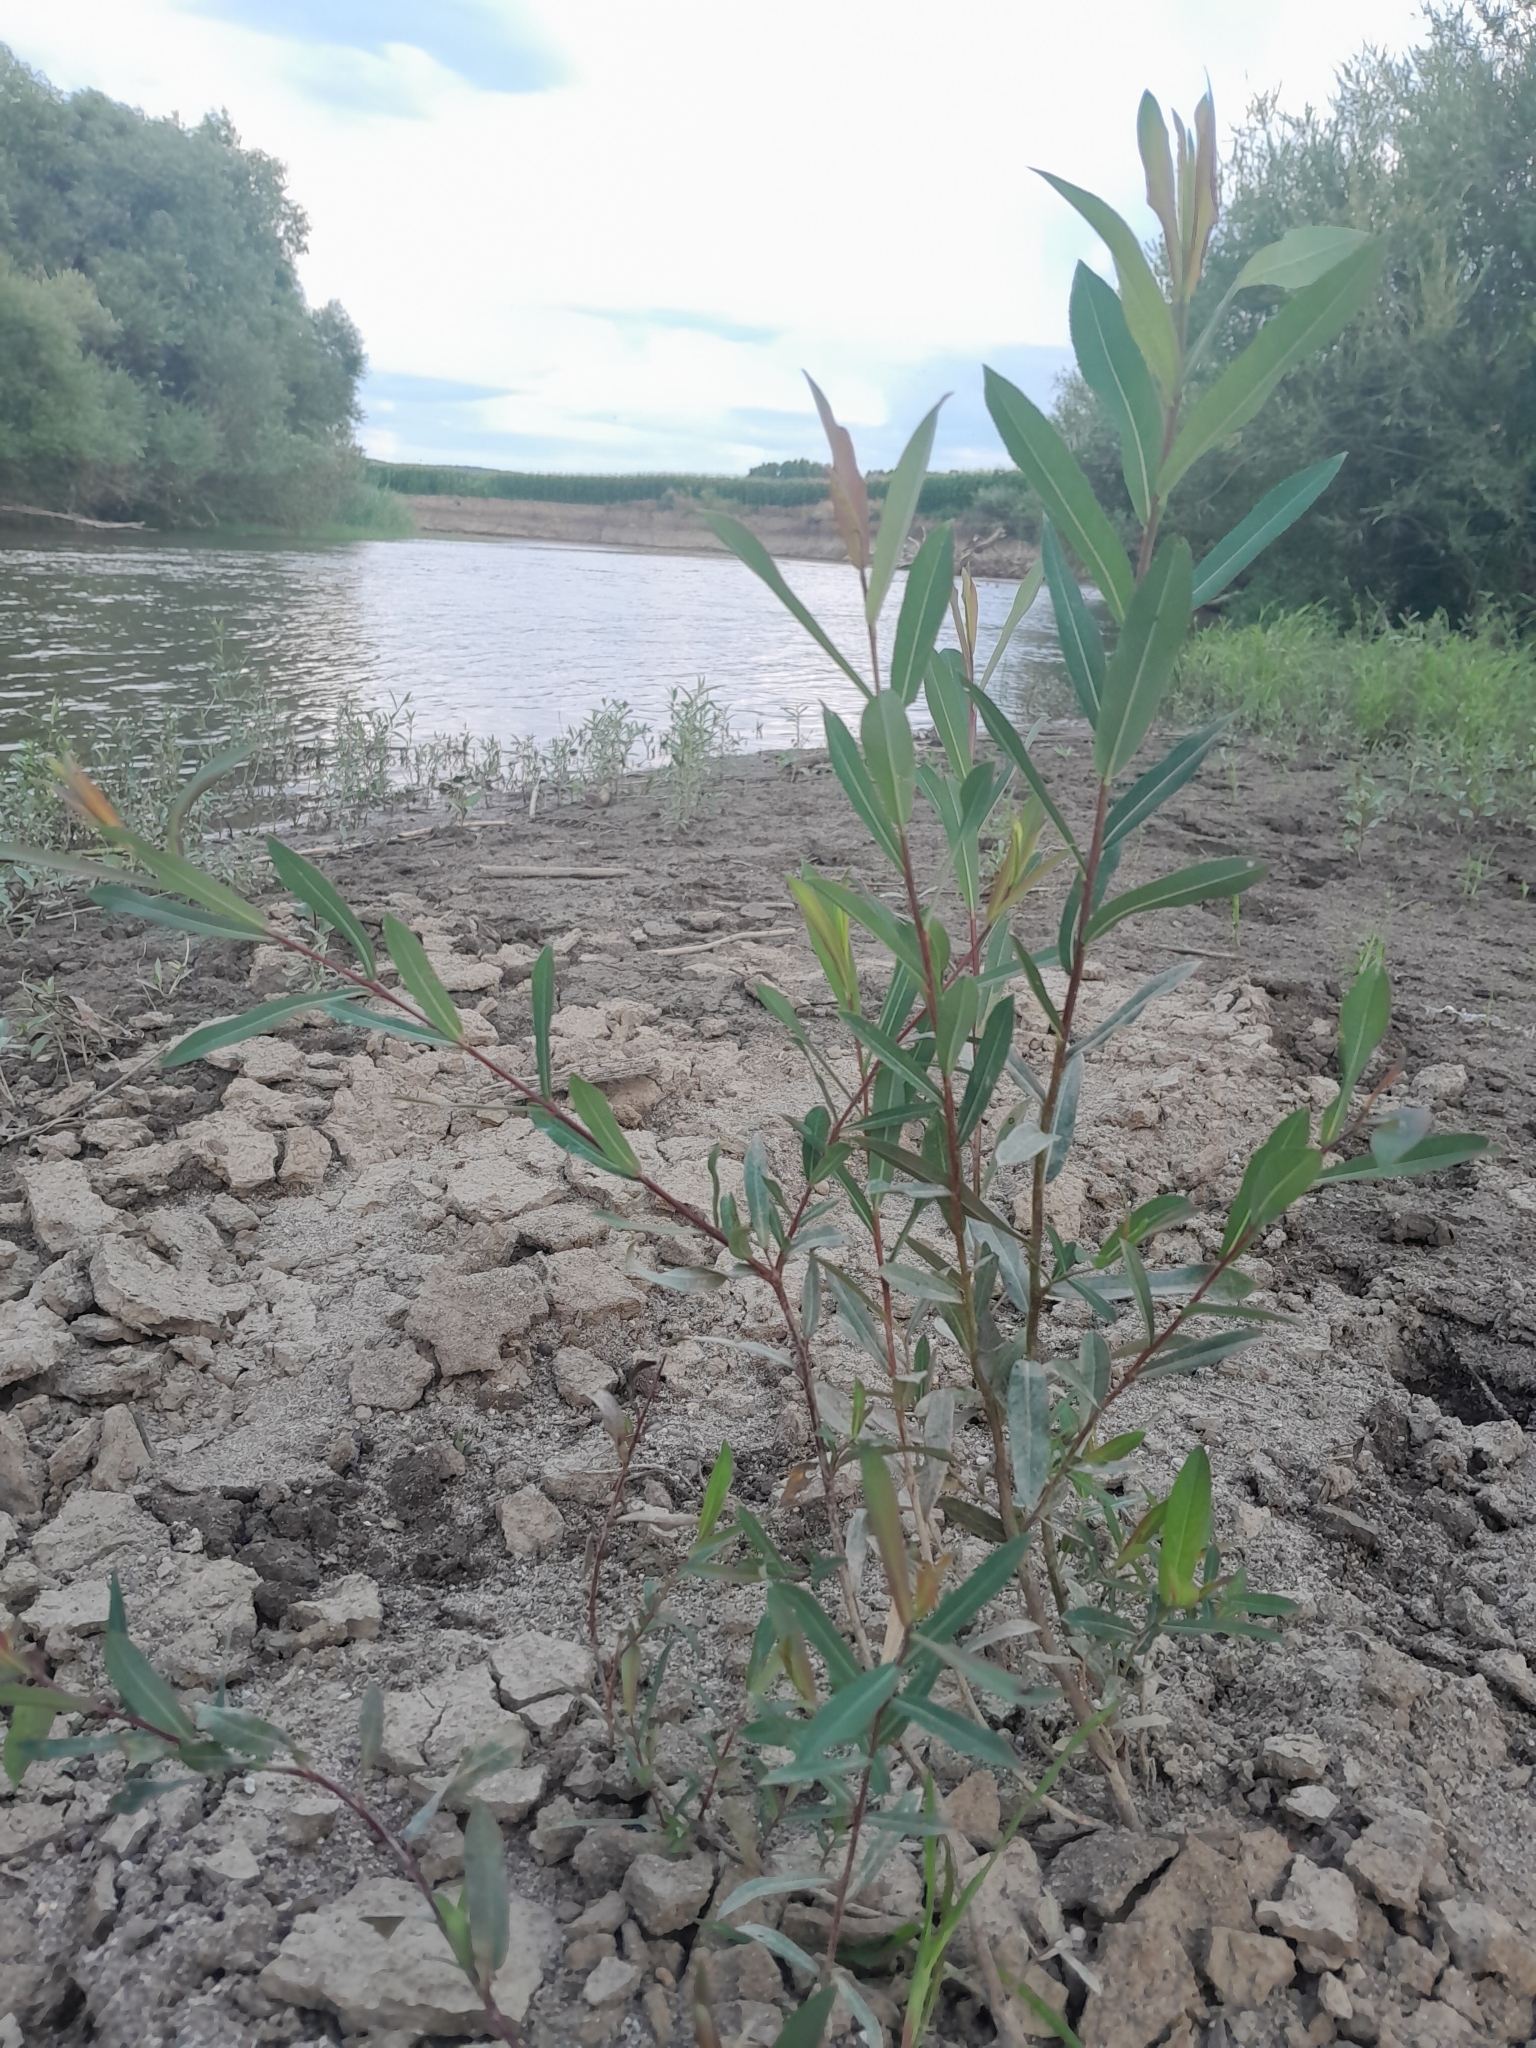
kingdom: Plantae
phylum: Tracheophyta
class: Magnoliopsida
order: Malpighiales
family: Salicaceae
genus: Salix
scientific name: Salix purpurea
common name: Purple willow
